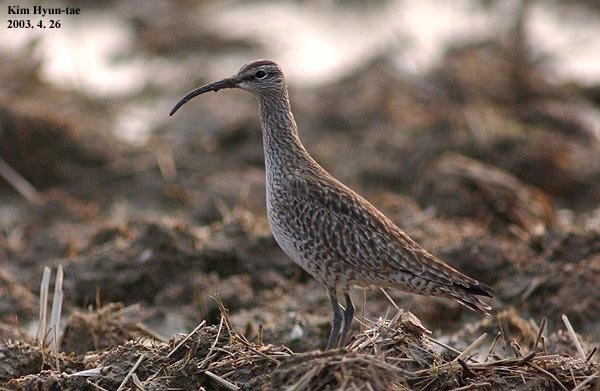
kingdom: Animalia
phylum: Chordata
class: Aves
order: Charadriiformes
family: Scolopacidae
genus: Numenius
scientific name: Numenius phaeopus
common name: Whimbrel
